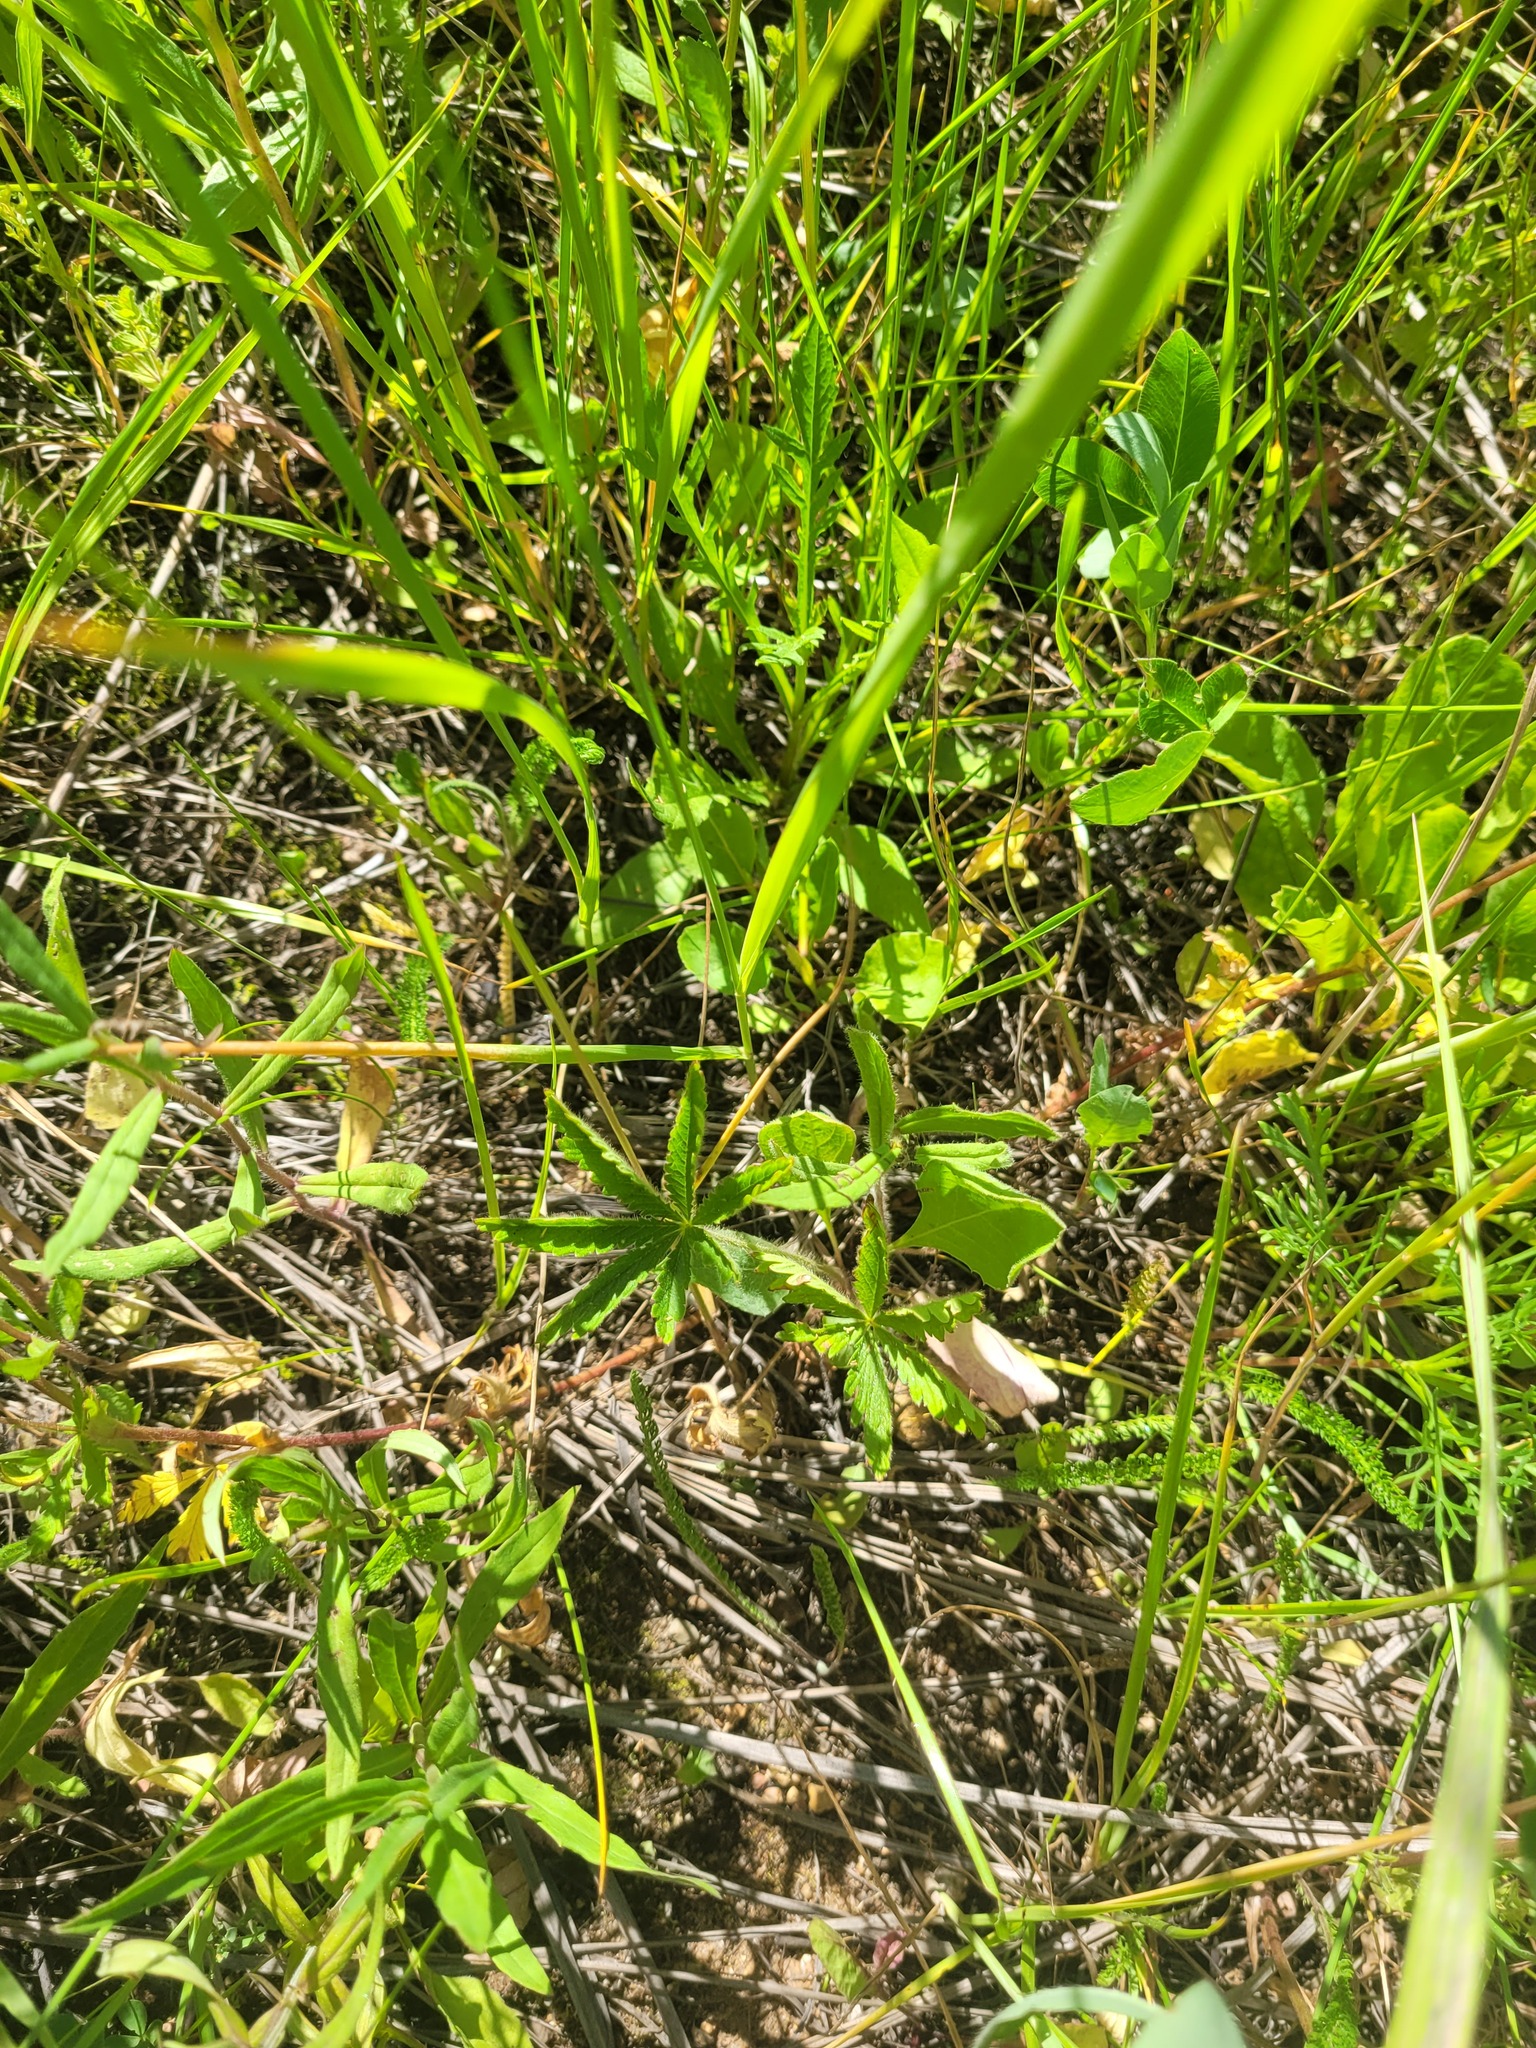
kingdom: Plantae
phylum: Tracheophyta
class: Magnoliopsida
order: Rosales
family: Rosaceae
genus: Potentilla
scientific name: Potentilla thuringiaca
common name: European cinquefoil
